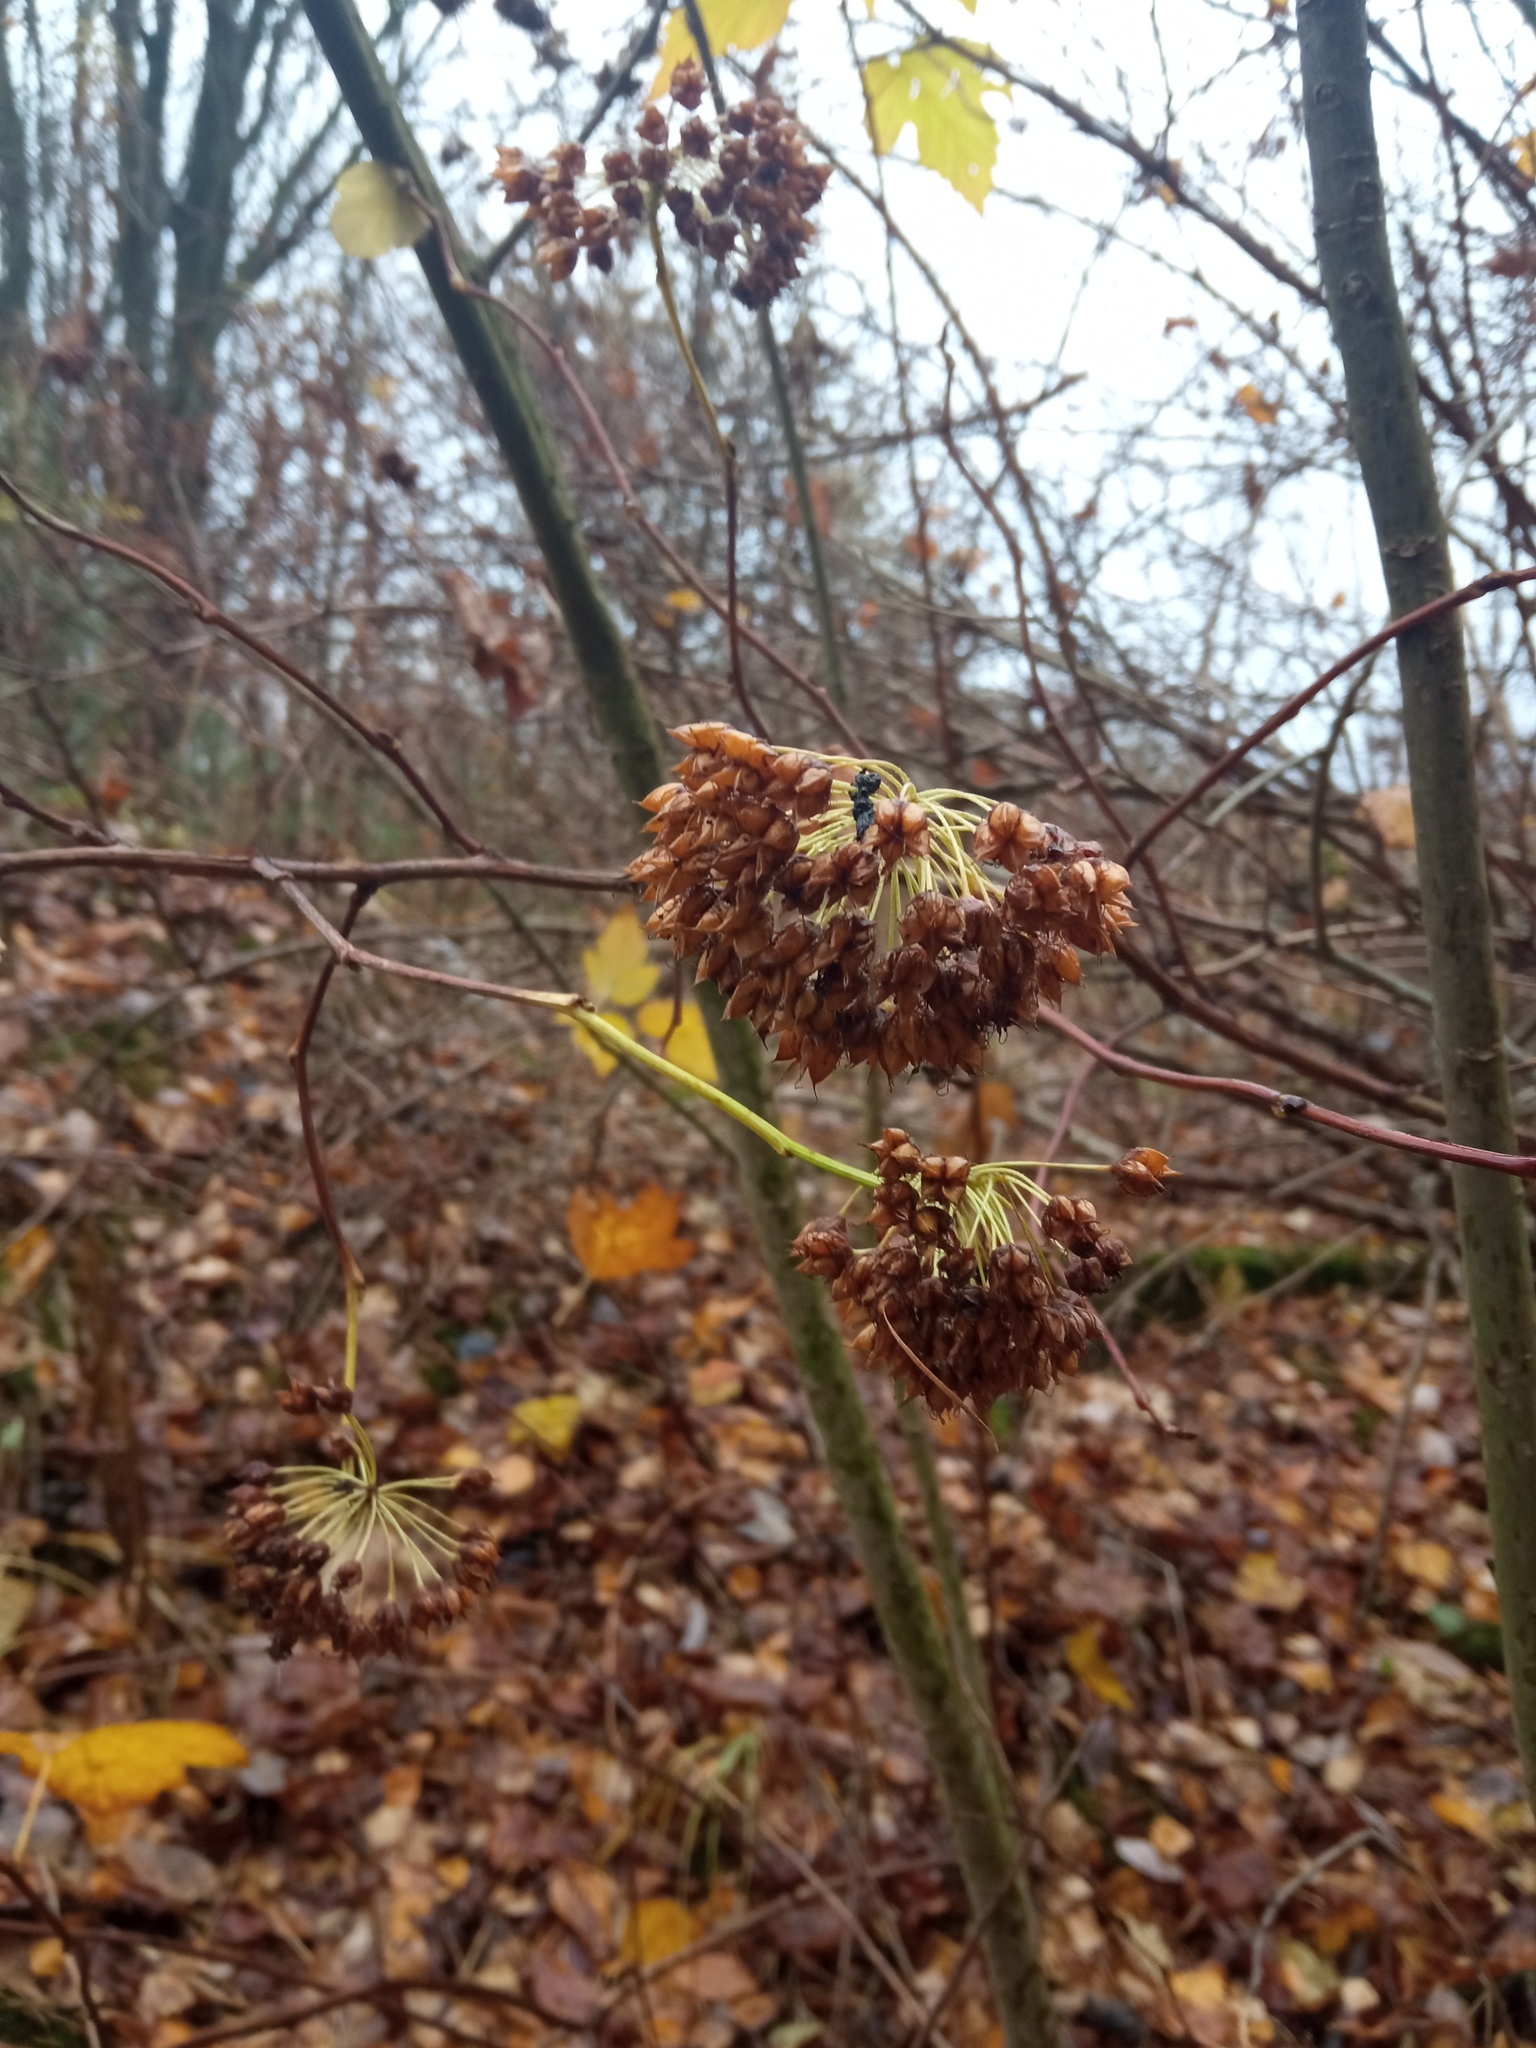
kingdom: Plantae
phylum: Tracheophyta
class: Magnoliopsida
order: Rosales
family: Rosaceae
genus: Physocarpus
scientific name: Physocarpus opulifolius
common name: Ninebark
